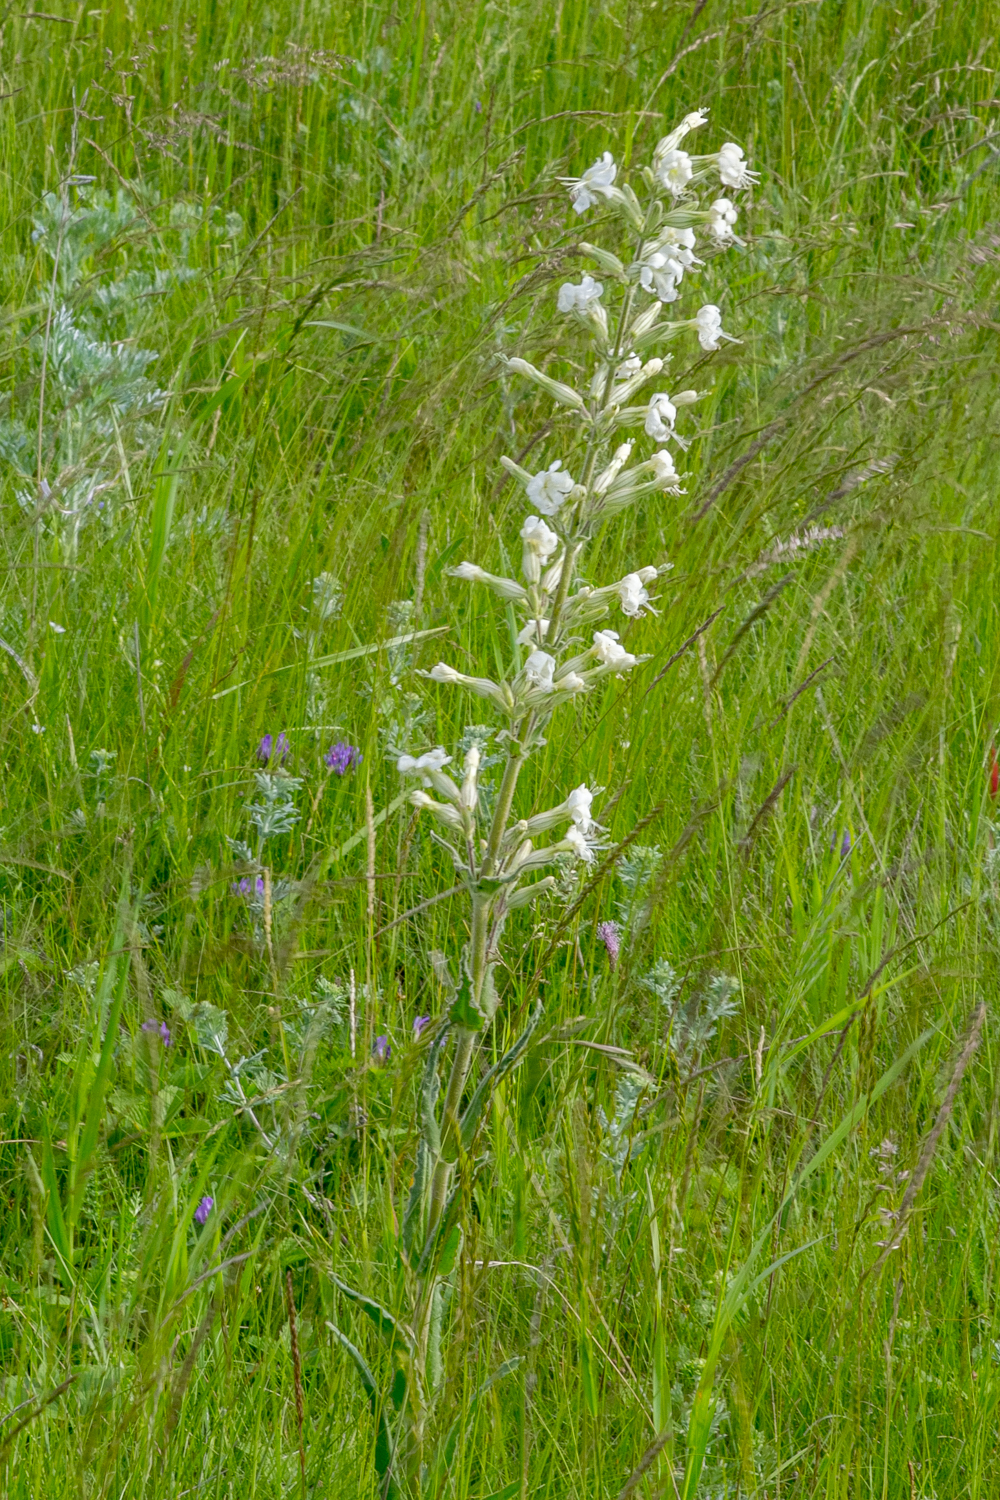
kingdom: Plantae
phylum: Tracheophyta
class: Magnoliopsida
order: Caryophyllales
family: Caryophyllaceae
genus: Silene
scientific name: Silene viscosa
